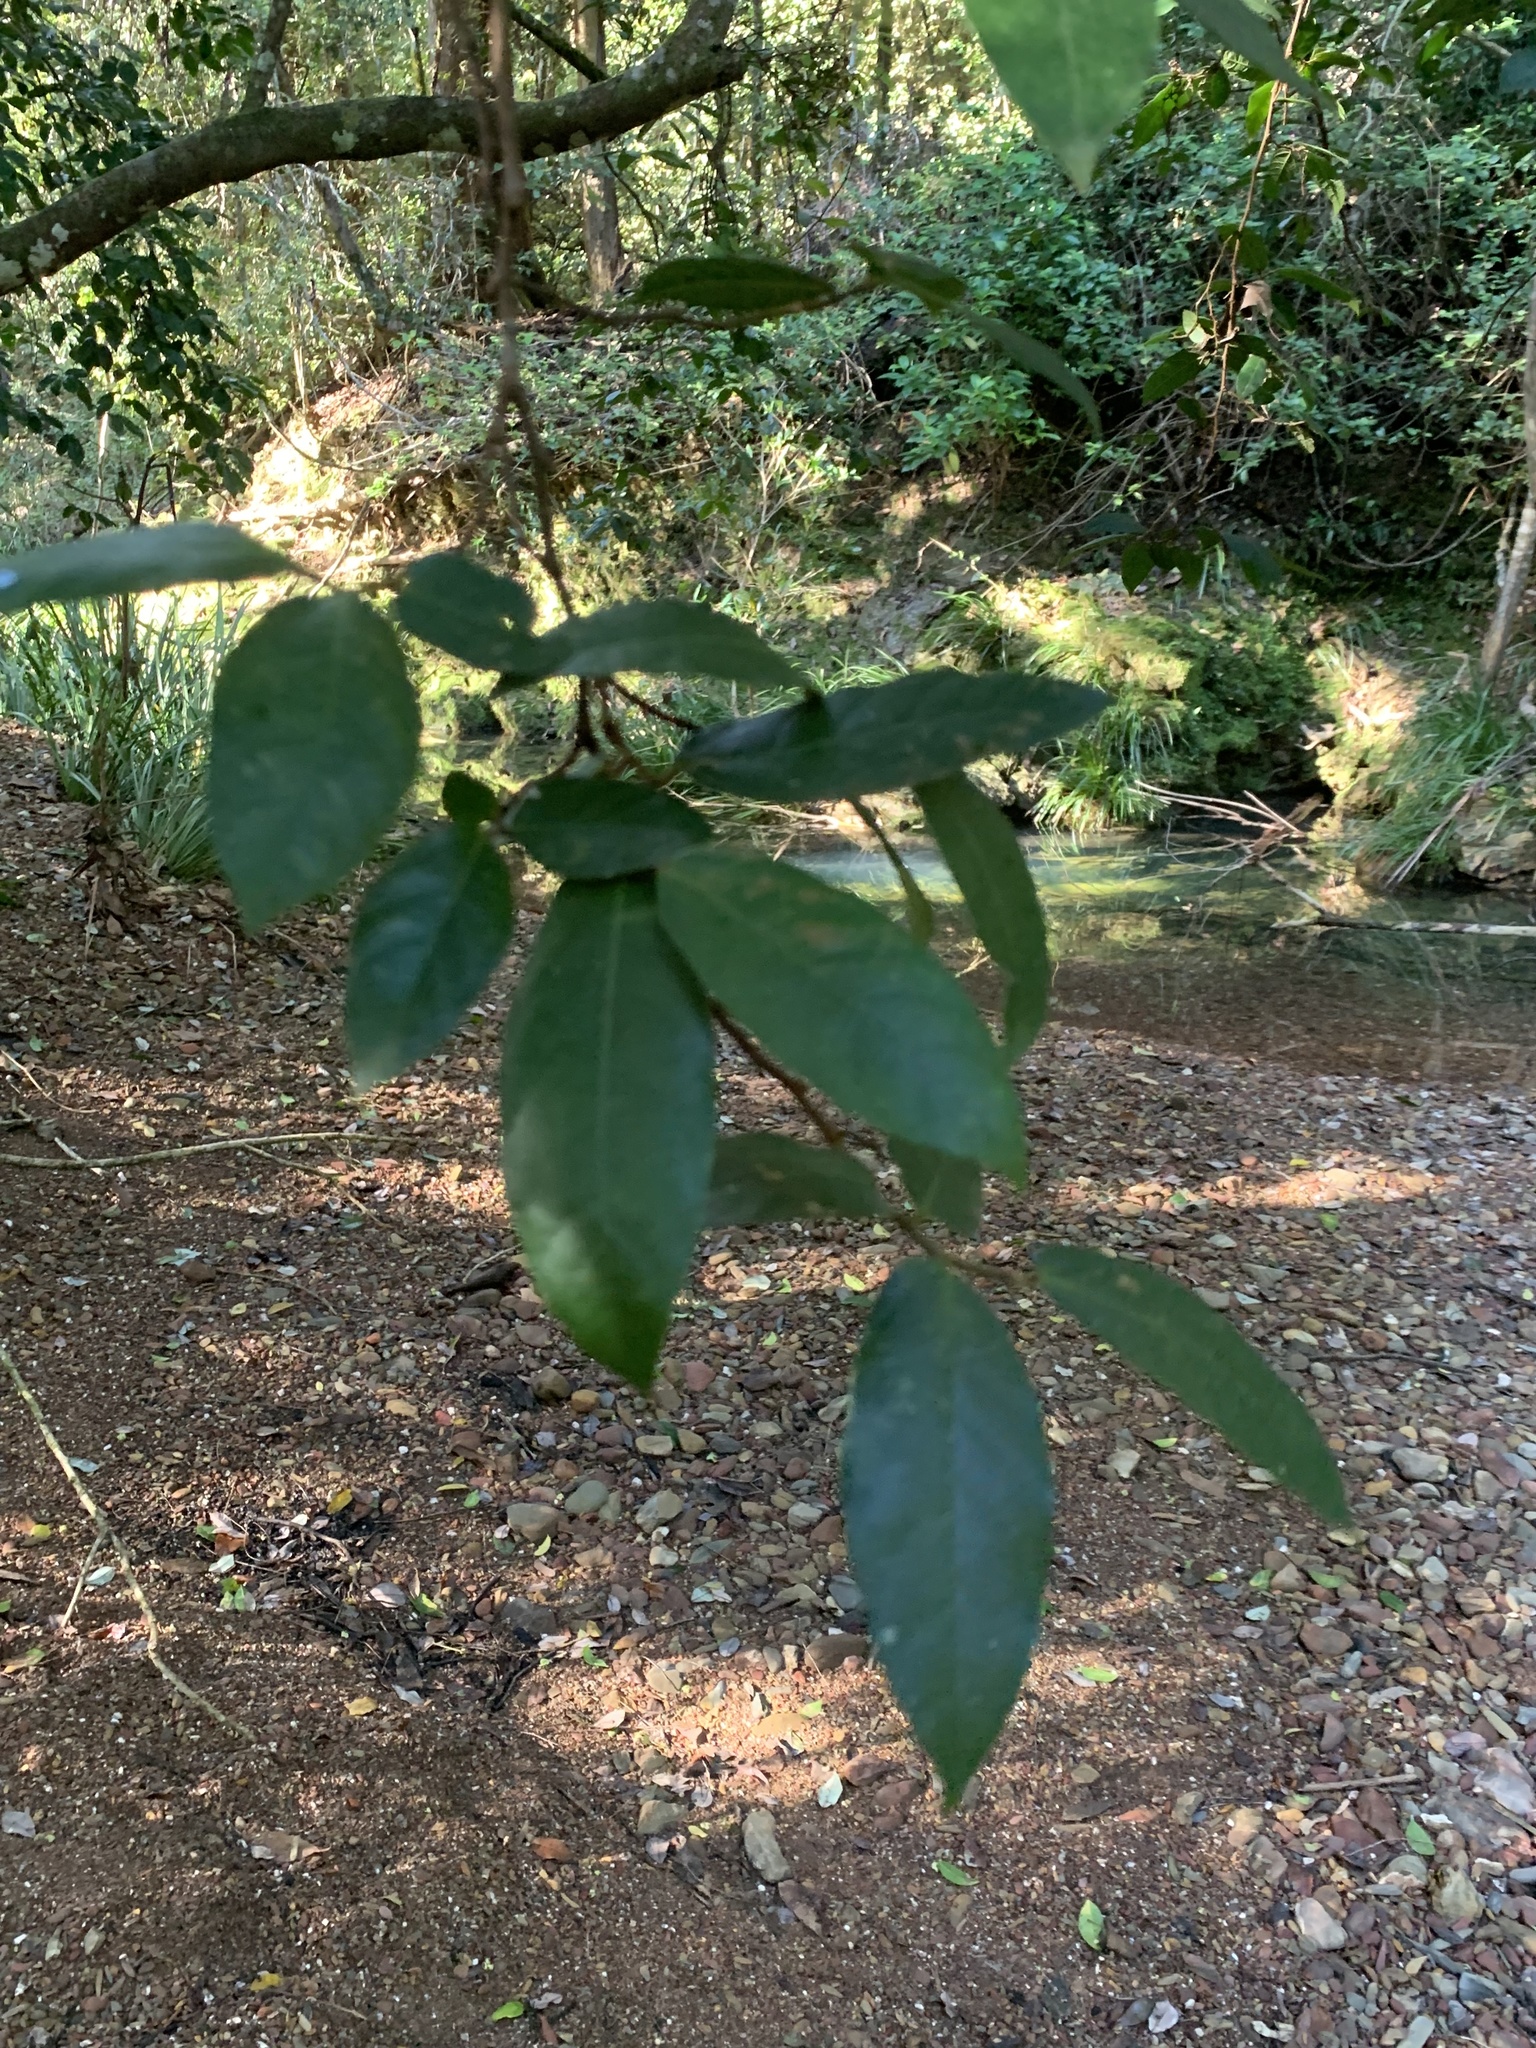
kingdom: Plantae
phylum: Tracheophyta
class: Magnoliopsida
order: Rosales
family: Moraceae
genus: Ficus
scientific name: Ficus coronata
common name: Creek sandpaper fig
